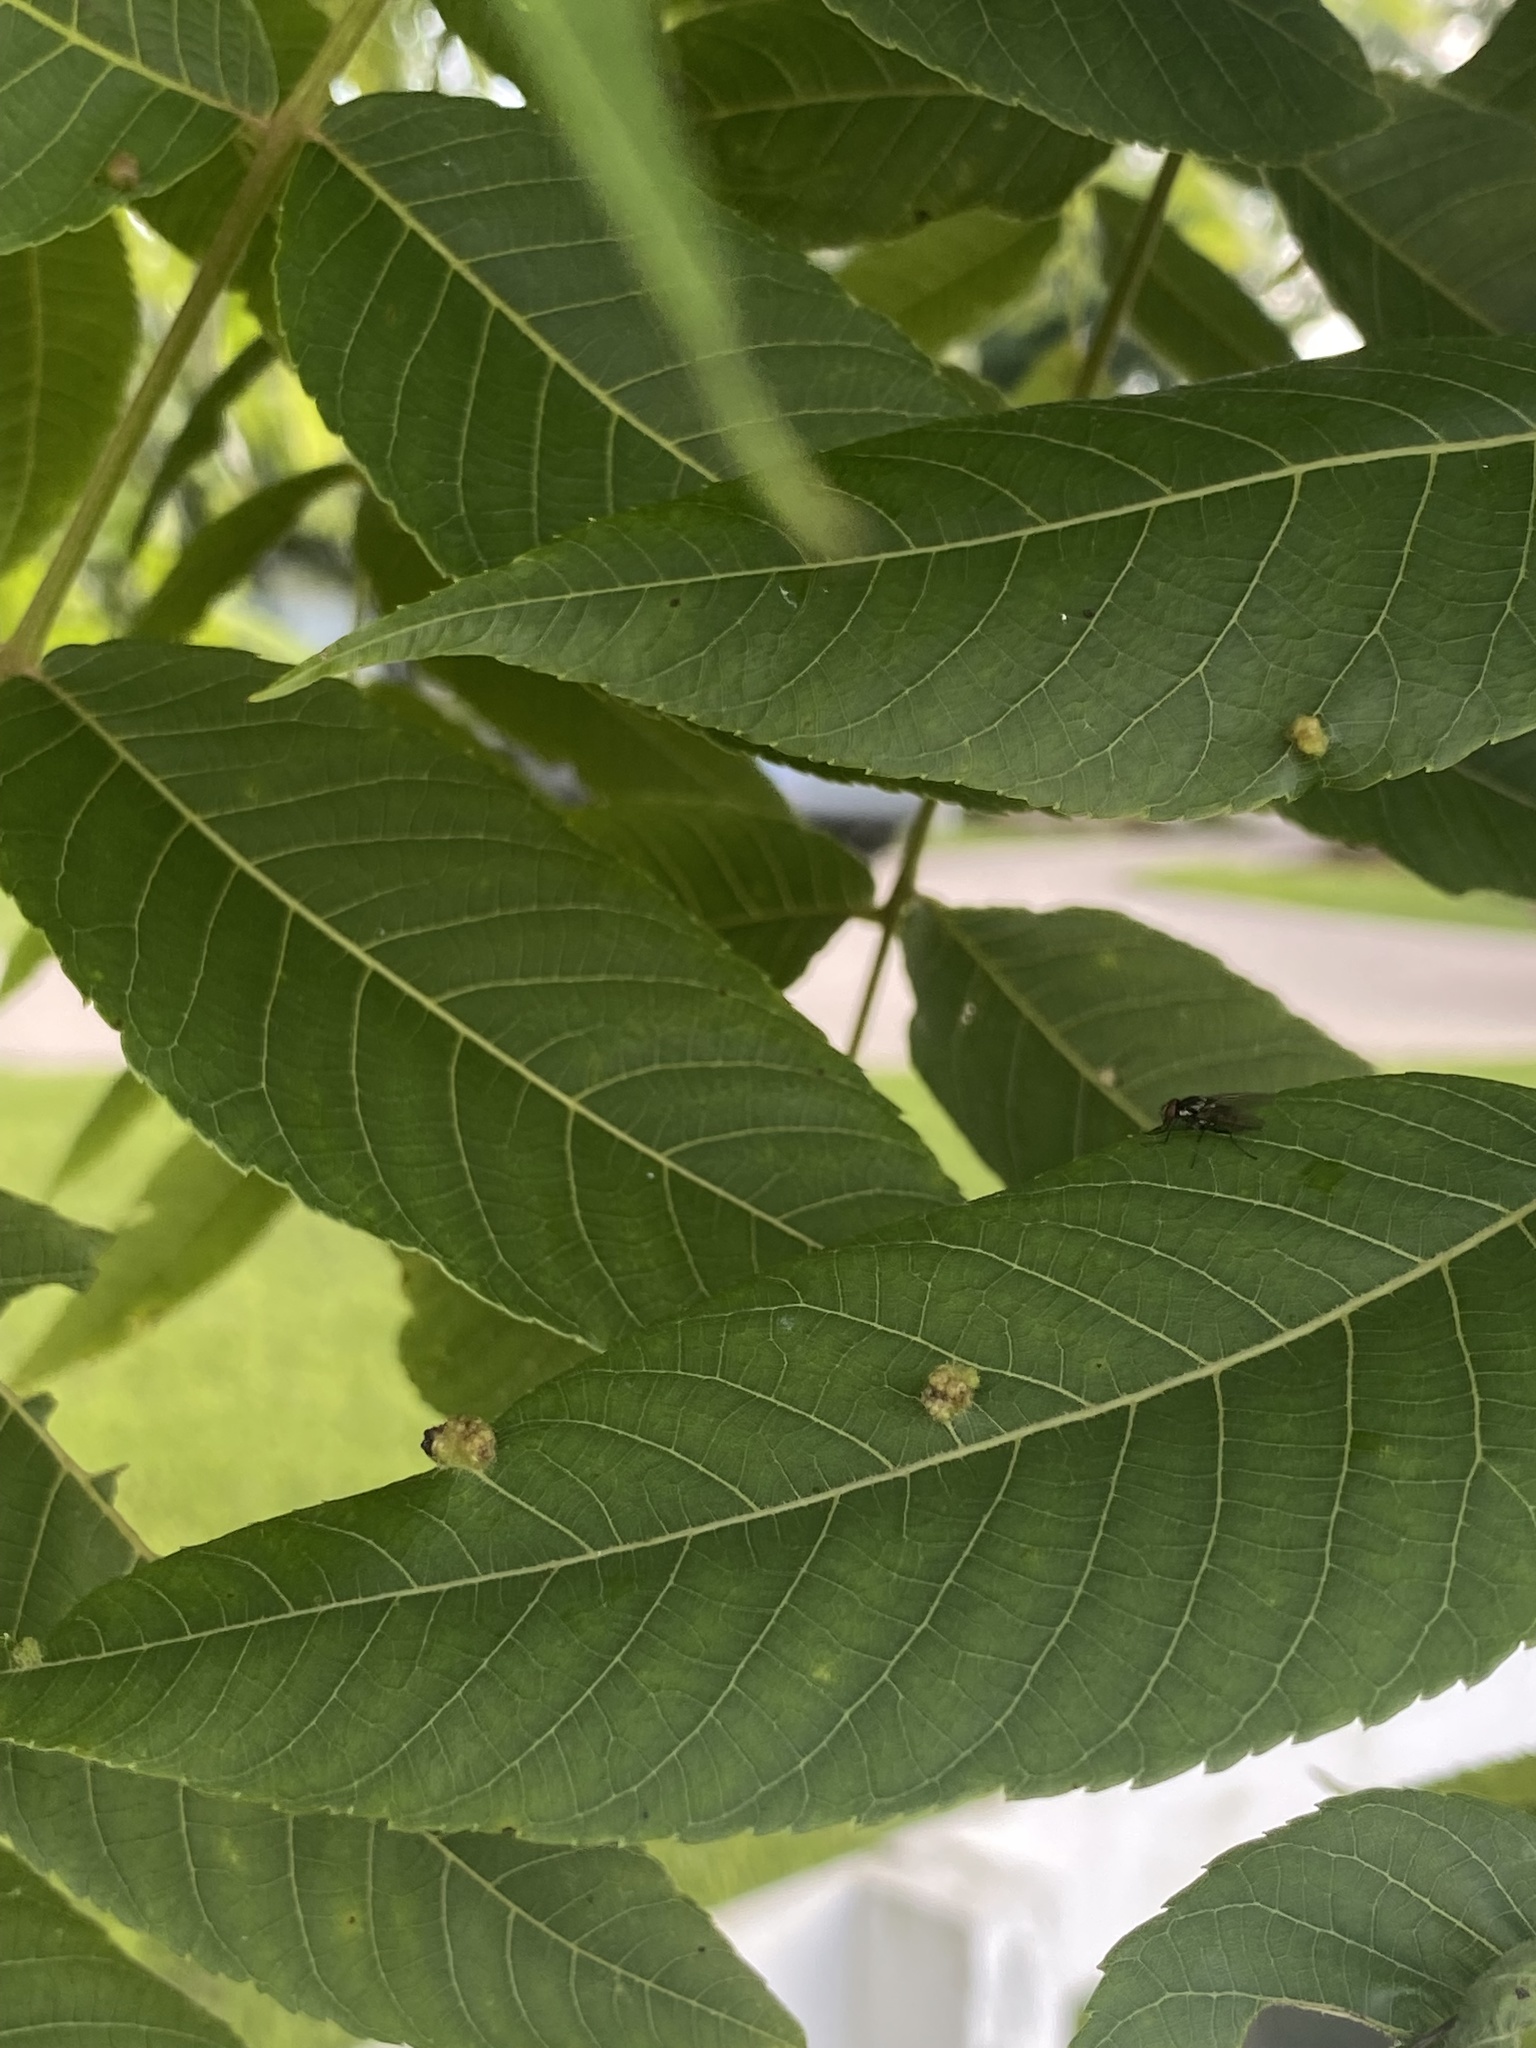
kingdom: Animalia
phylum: Arthropoda
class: Arachnida
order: Trombidiformes
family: Eriophyidae
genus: Aceria
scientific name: Aceria brachytarsus
